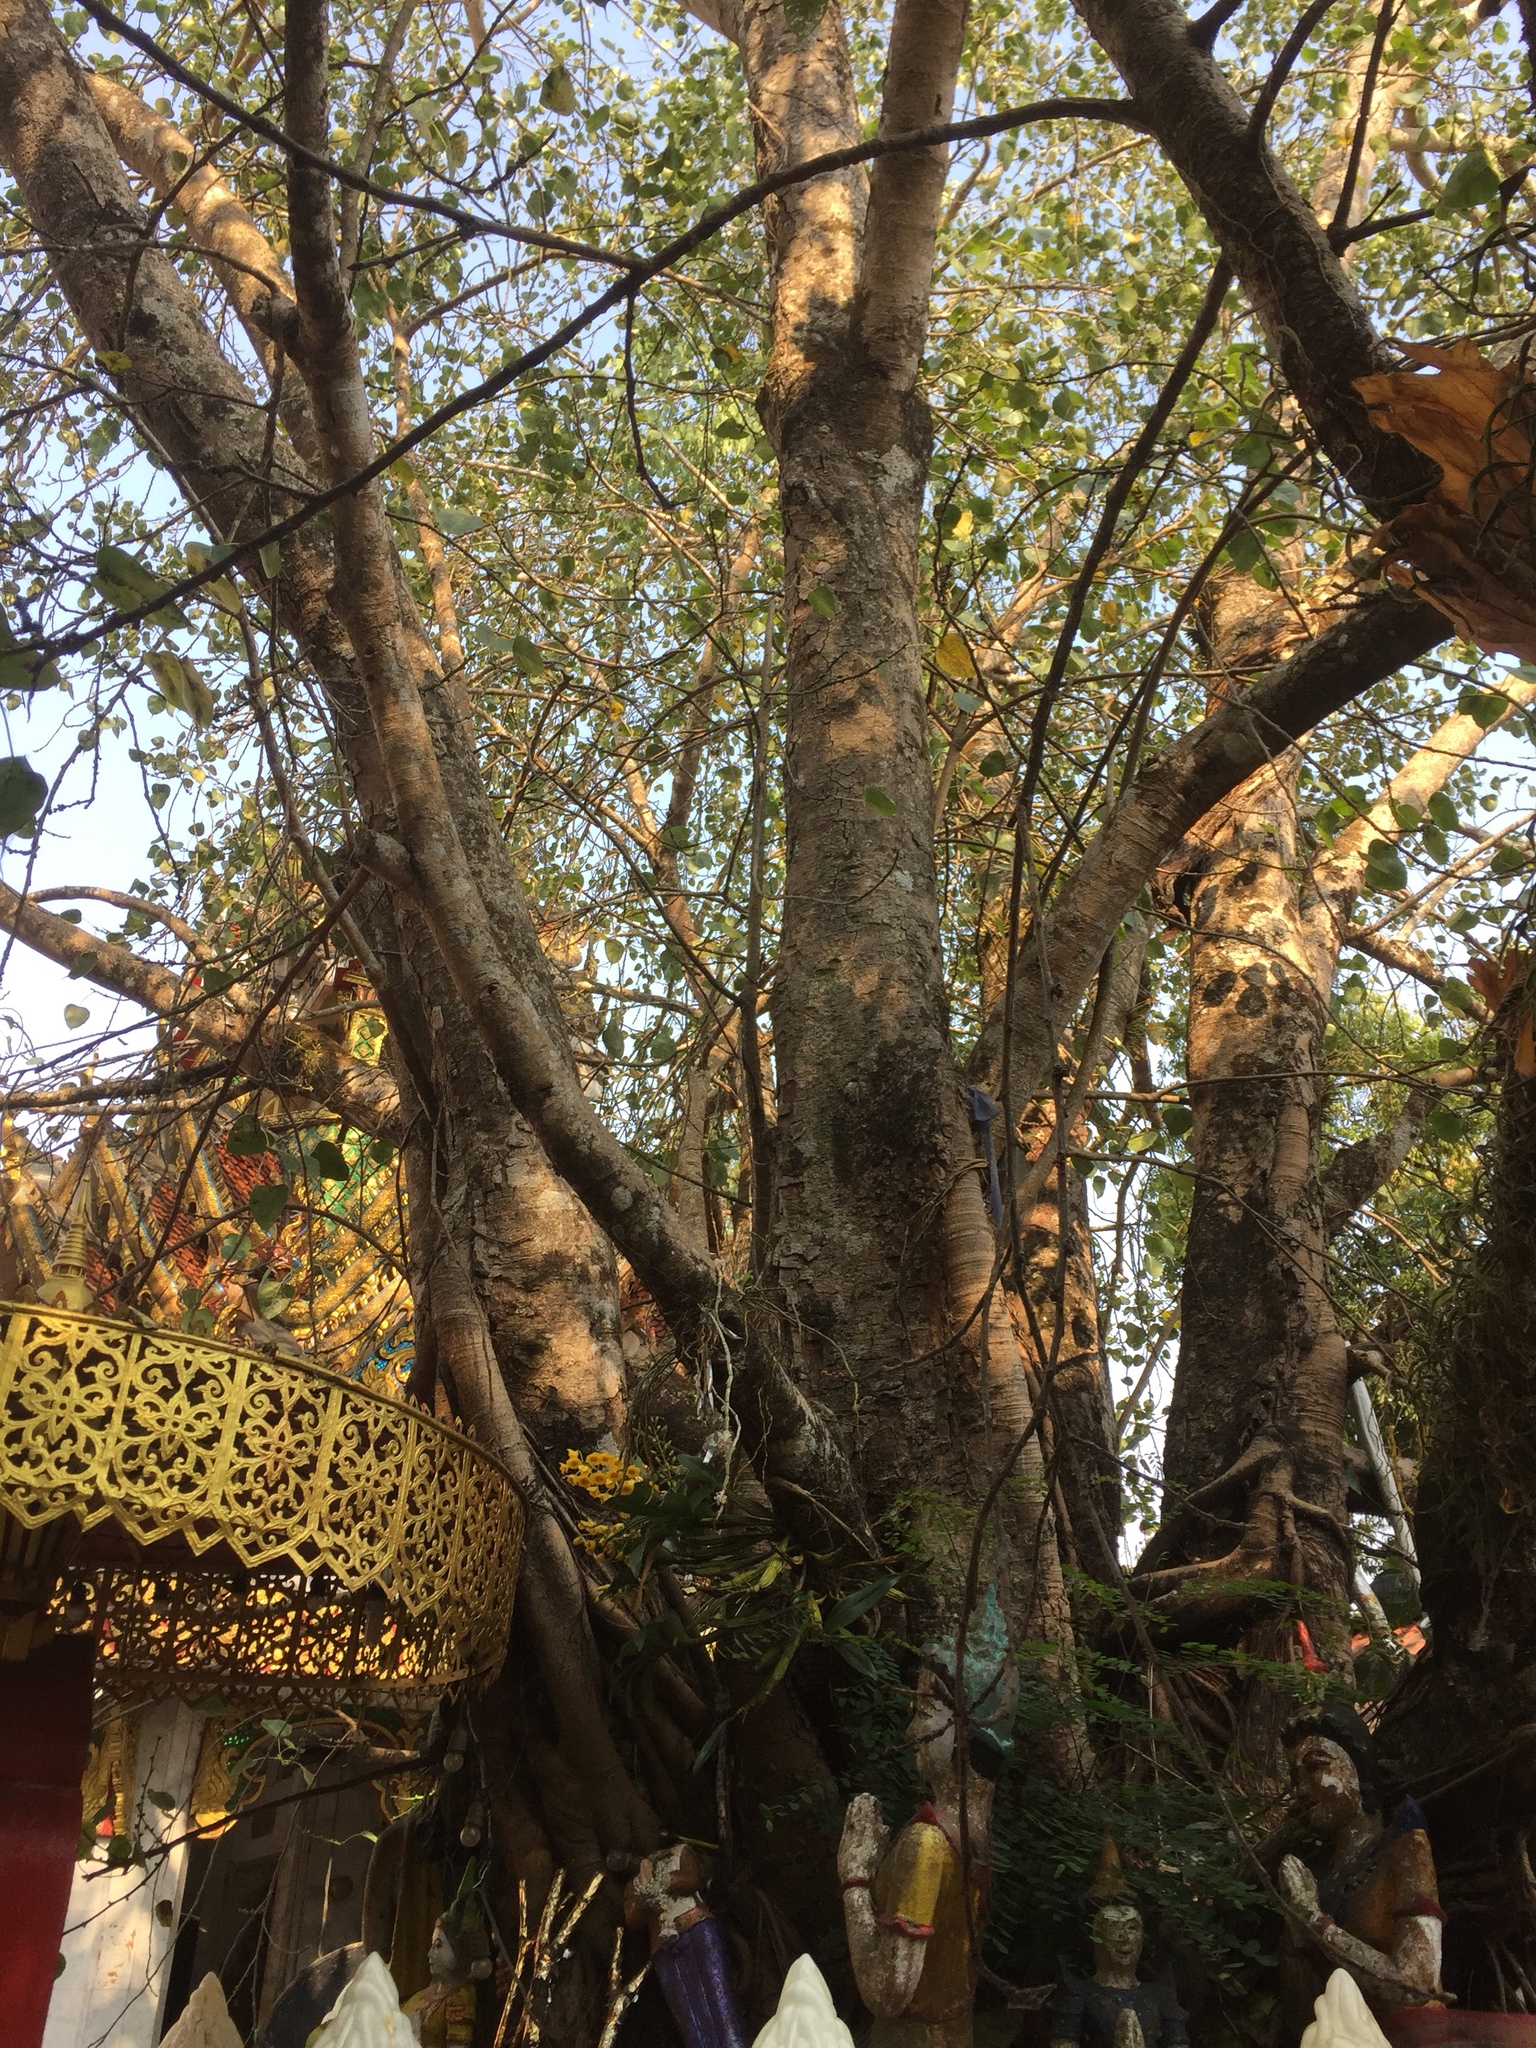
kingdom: Plantae
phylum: Tracheophyta
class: Magnoliopsida
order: Rosales
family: Moraceae
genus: Ficus
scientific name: Ficus religiosa
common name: Bodhi tree
